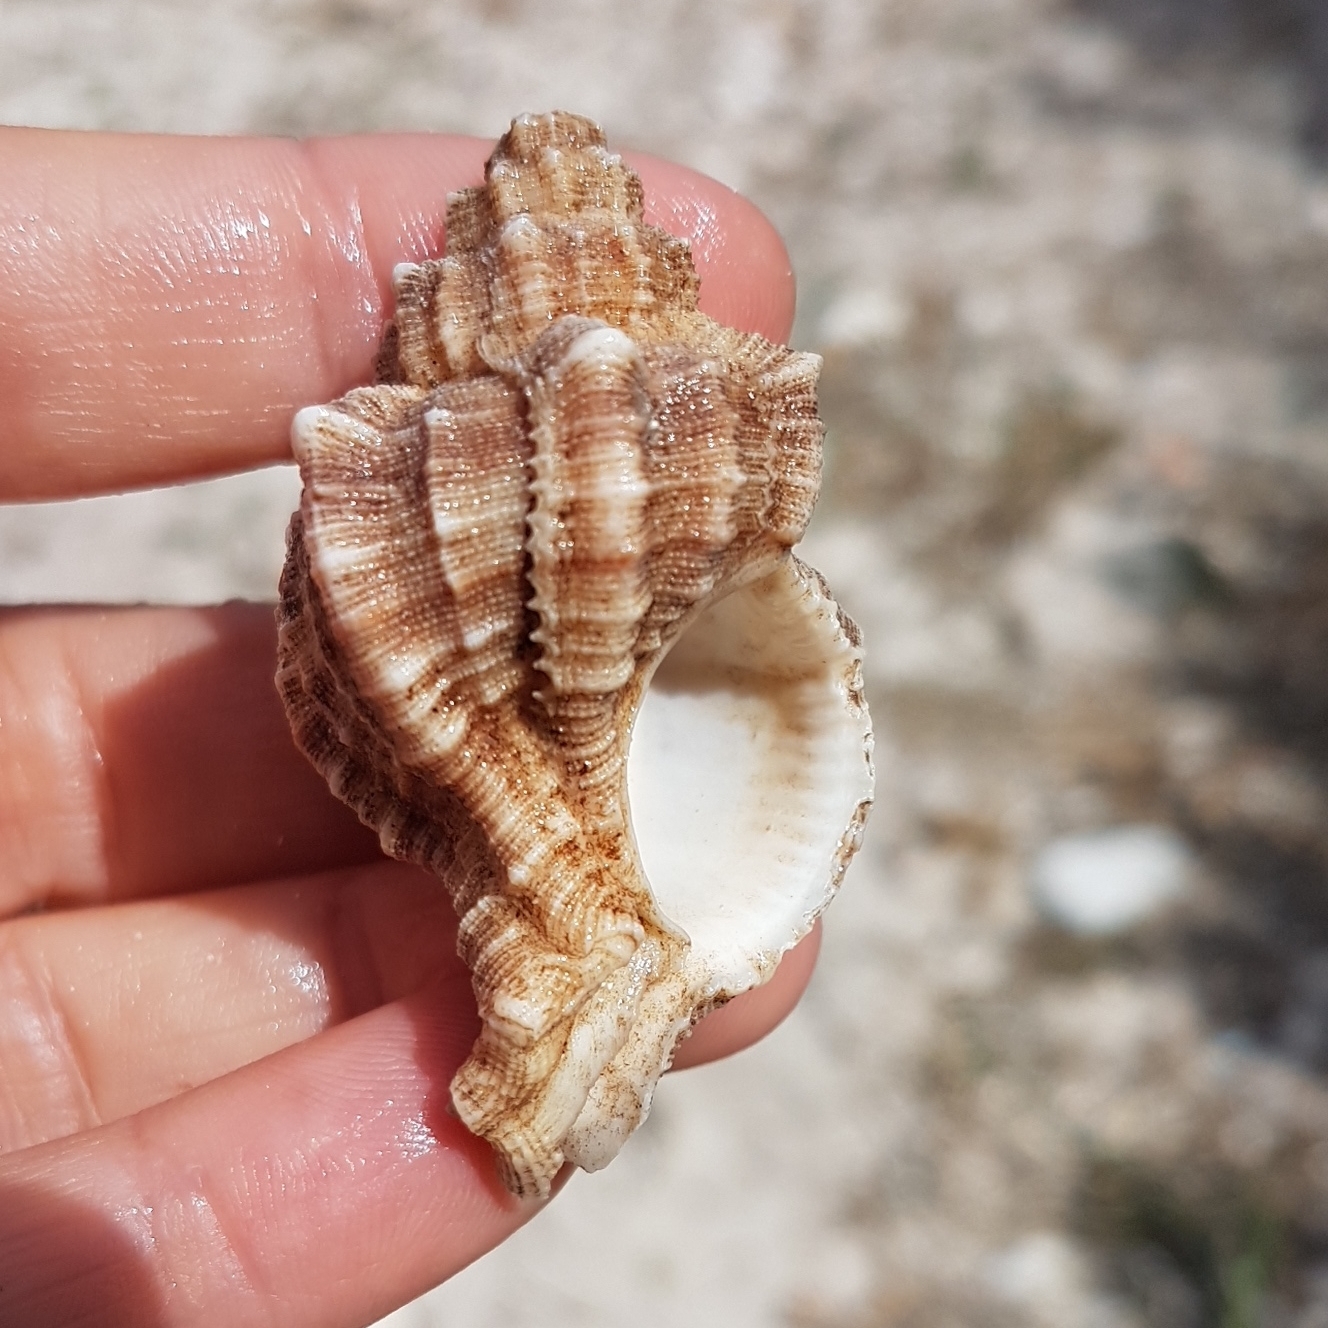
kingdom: Animalia
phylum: Mollusca
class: Gastropoda
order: Neogastropoda
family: Muricidae
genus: Hexaplex
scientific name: Hexaplex trunculus
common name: Banded dye-murex
